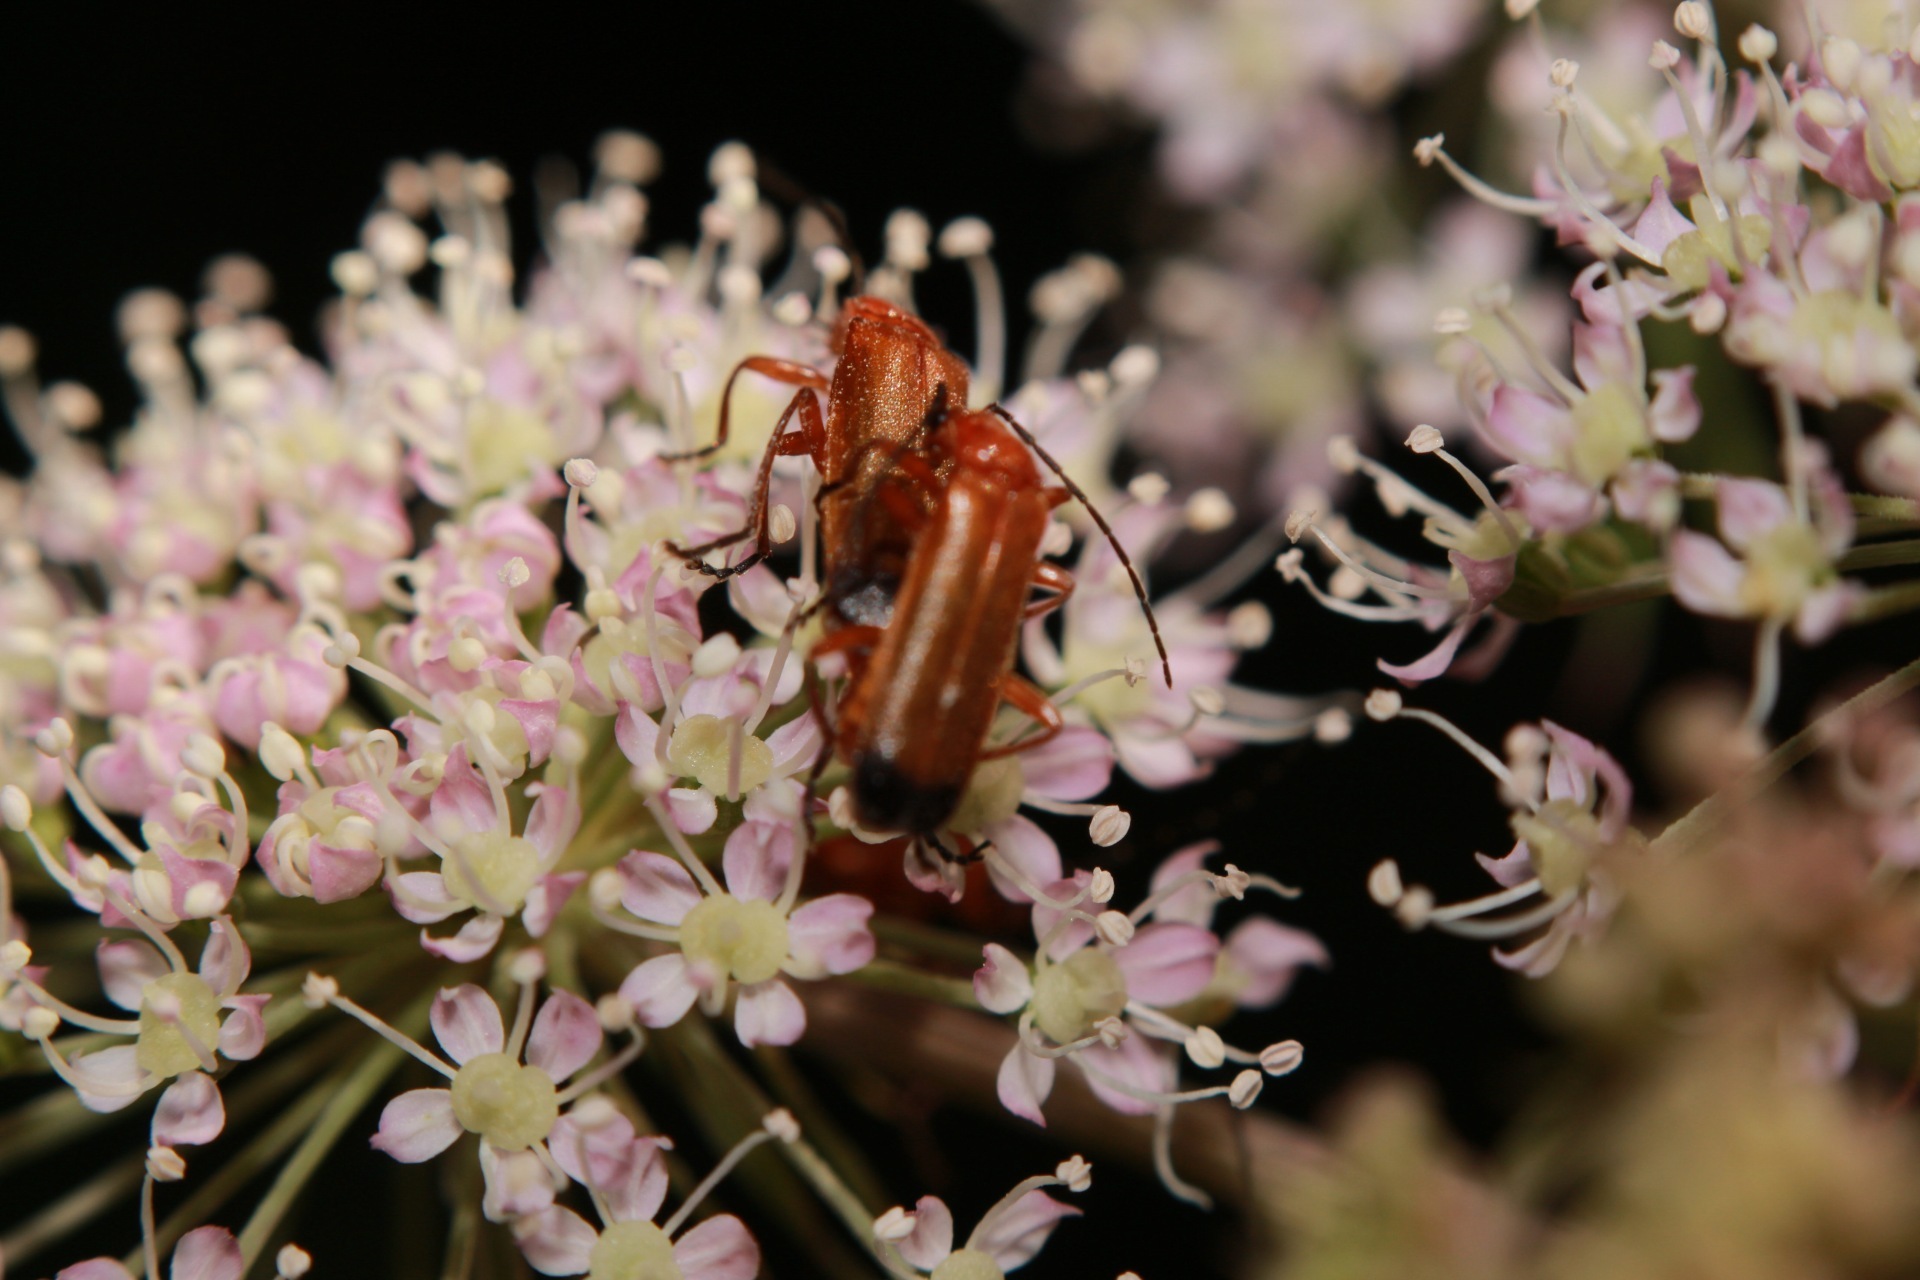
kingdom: Animalia
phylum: Arthropoda
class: Insecta
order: Coleoptera
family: Cantharidae
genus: Rhagonycha
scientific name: Rhagonycha fulva
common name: Common red soldier beetle
